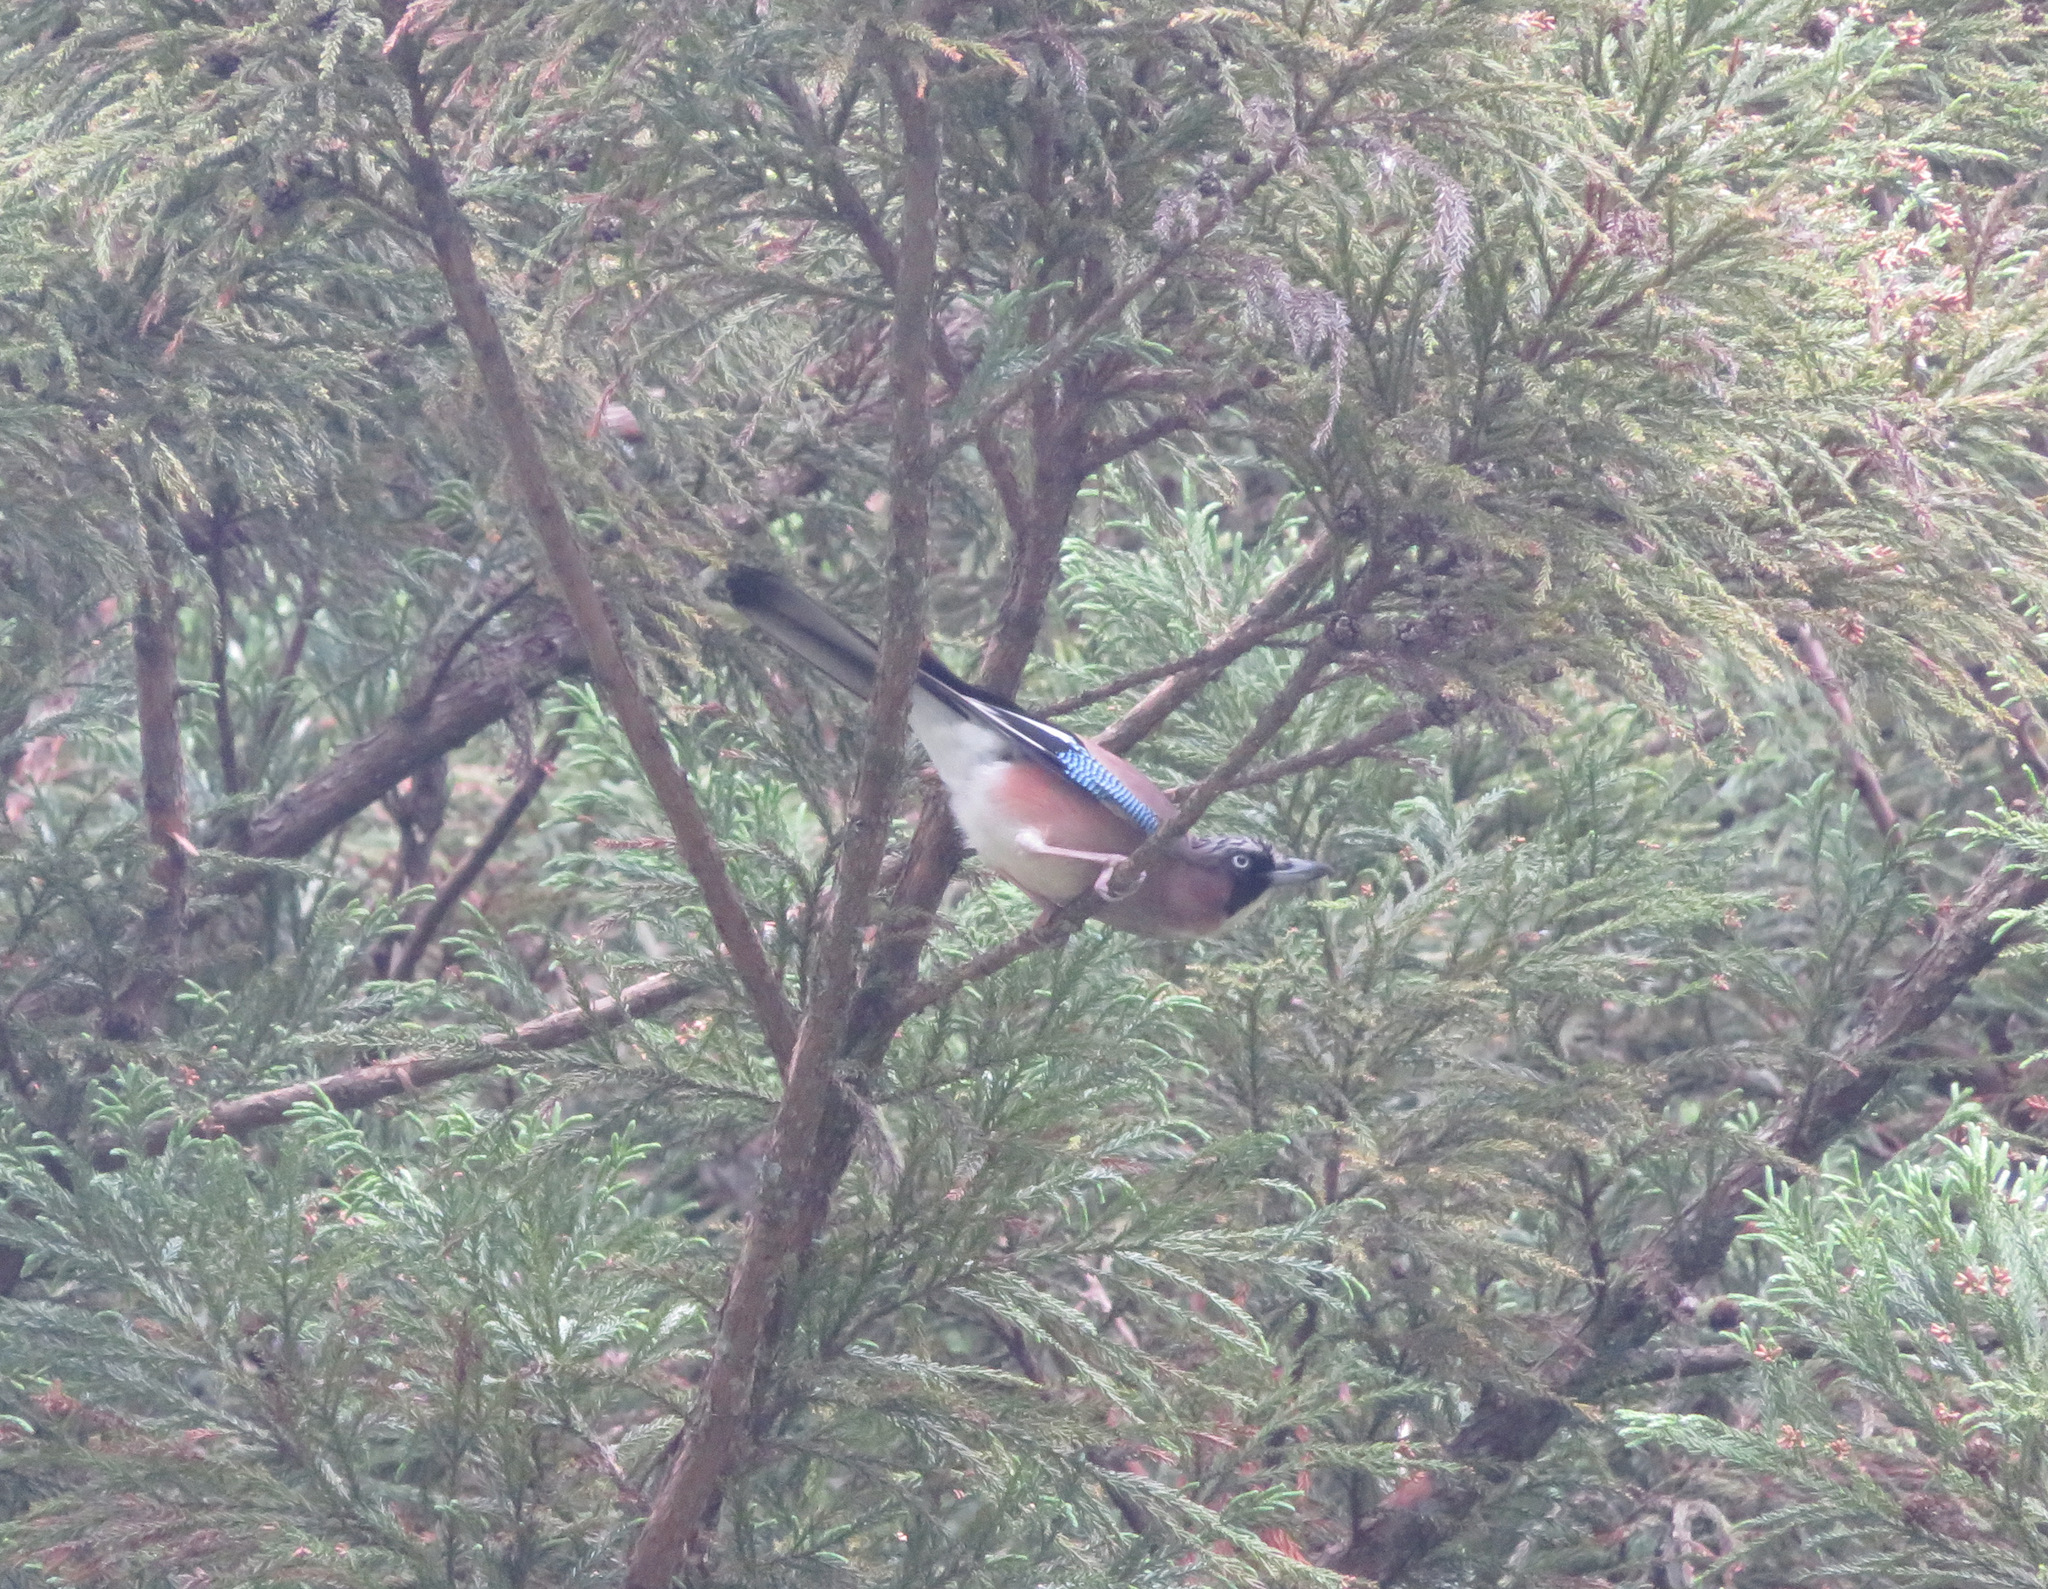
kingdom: Animalia
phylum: Chordata
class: Aves
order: Passeriformes
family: Corvidae
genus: Garrulus
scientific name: Garrulus glandarius
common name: Eurasian jay
